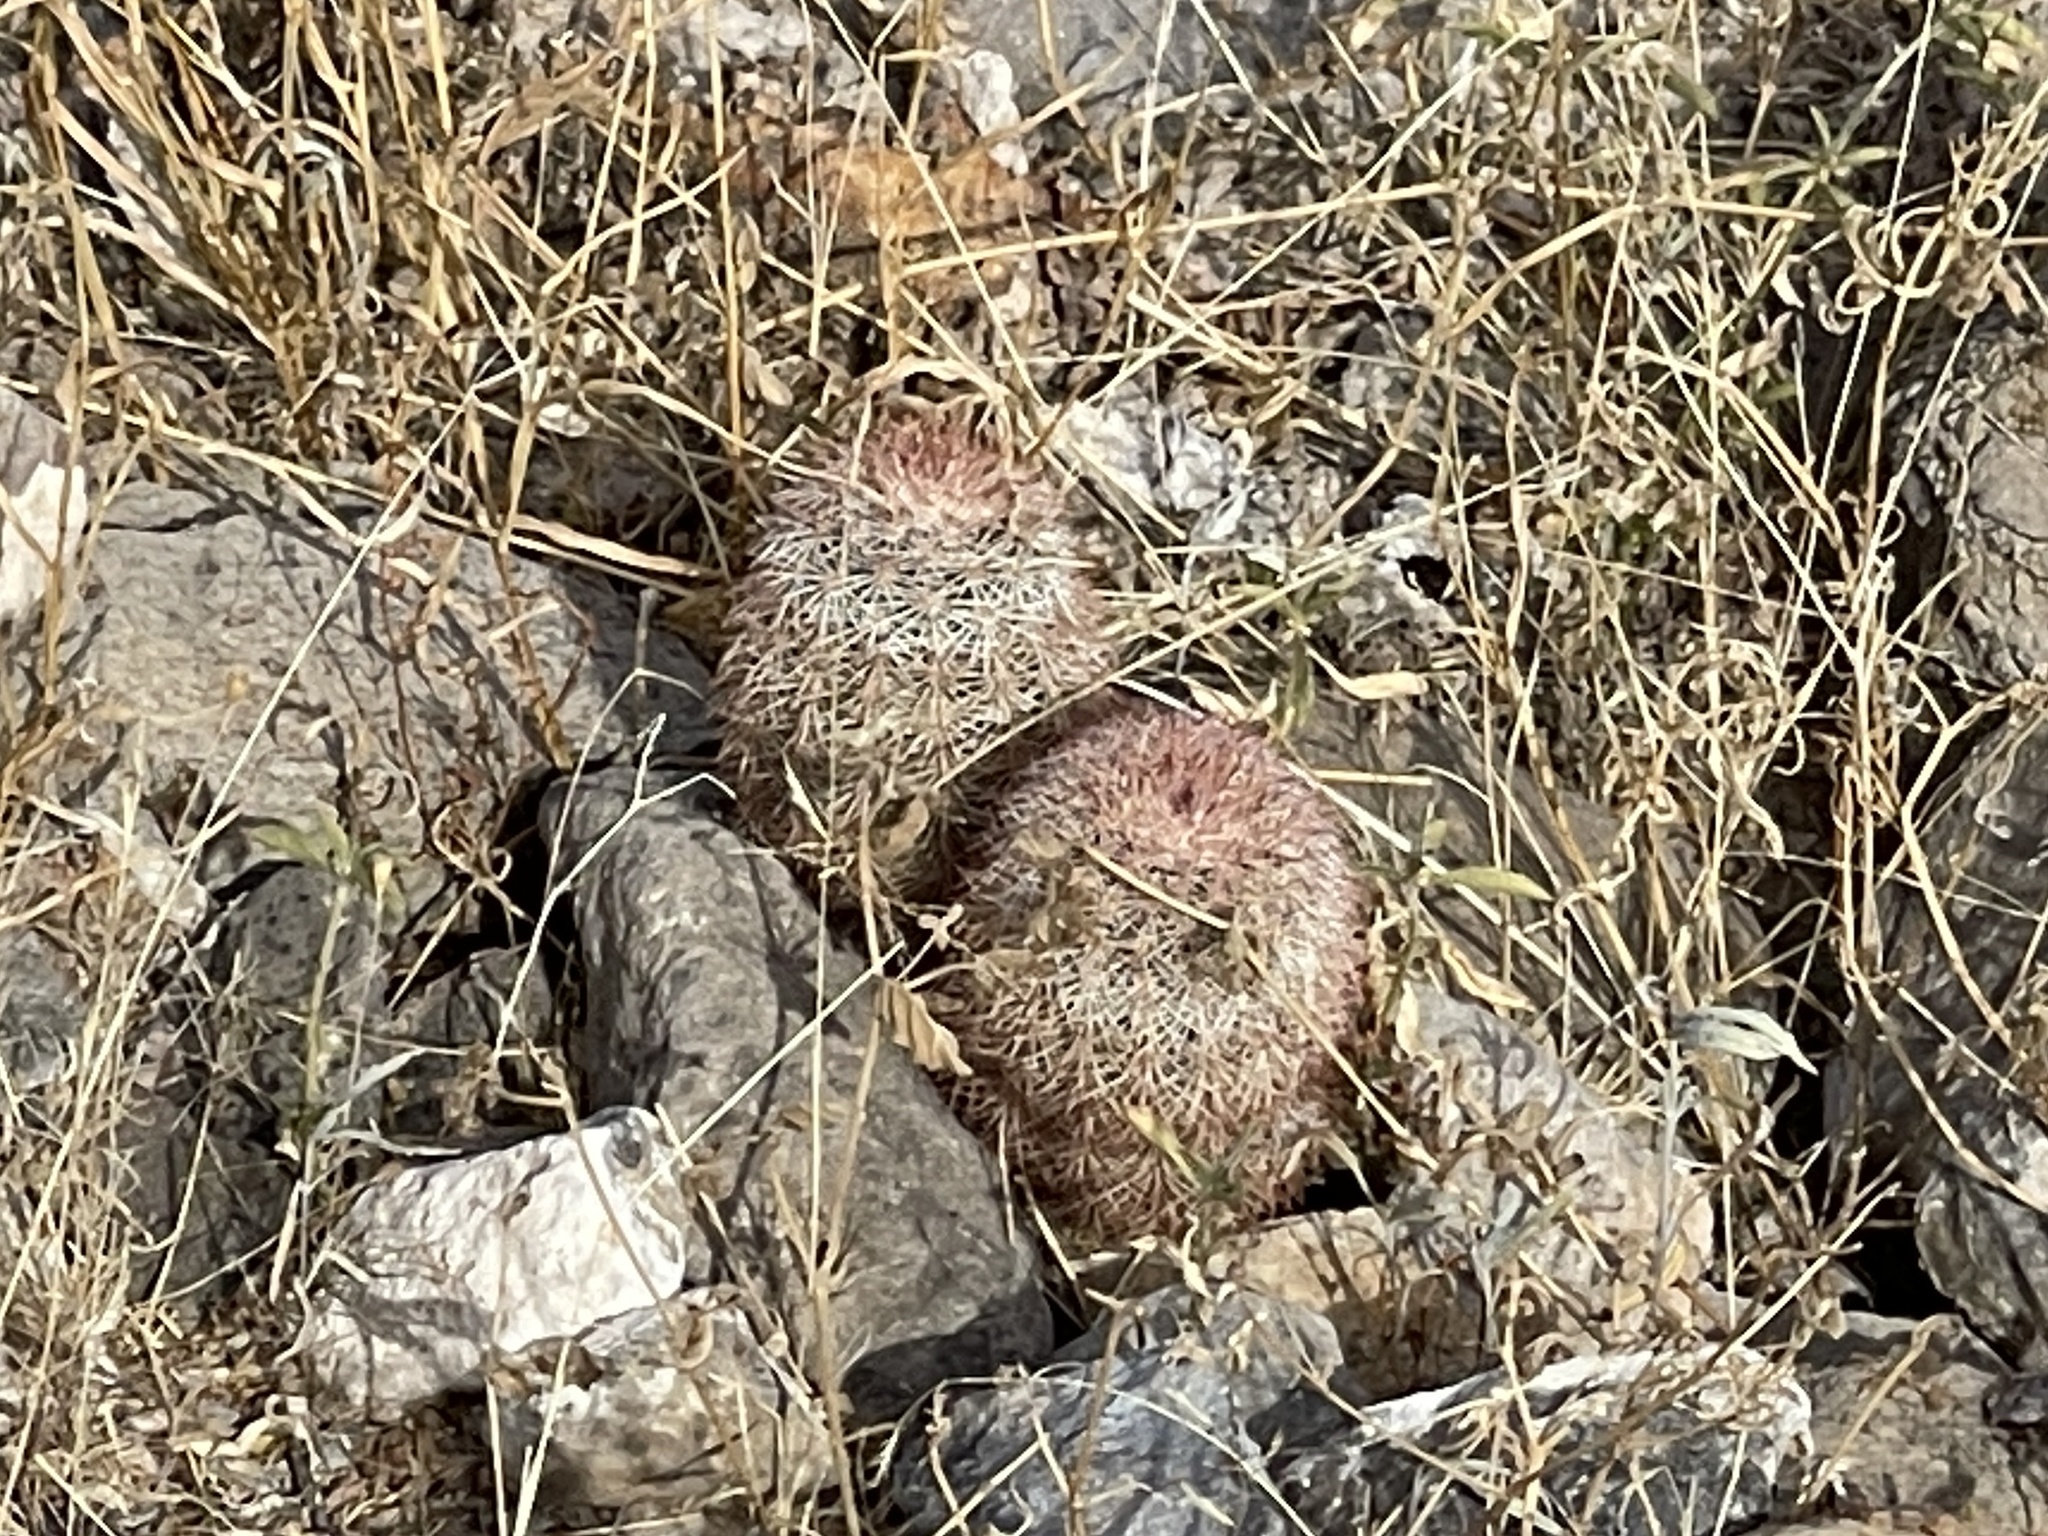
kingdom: Plantae
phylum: Tracheophyta
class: Magnoliopsida
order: Caryophyllales
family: Cactaceae
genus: Echinocereus
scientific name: Echinocereus dasyacanthus
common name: Spiny hedgehog cactus
